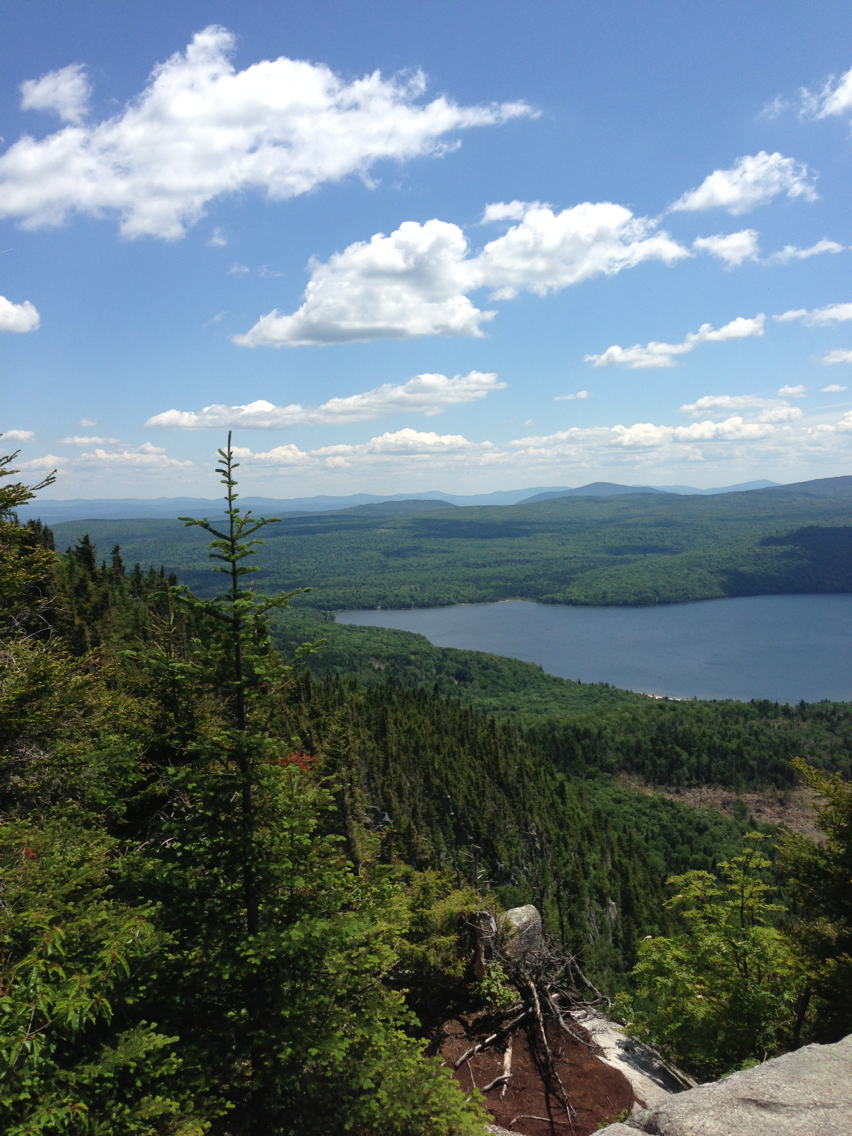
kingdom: Plantae
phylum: Tracheophyta
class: Pinopsida
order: Pinales
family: Pinaceae
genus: Abies
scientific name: Abies balsamea
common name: Balsam fir
